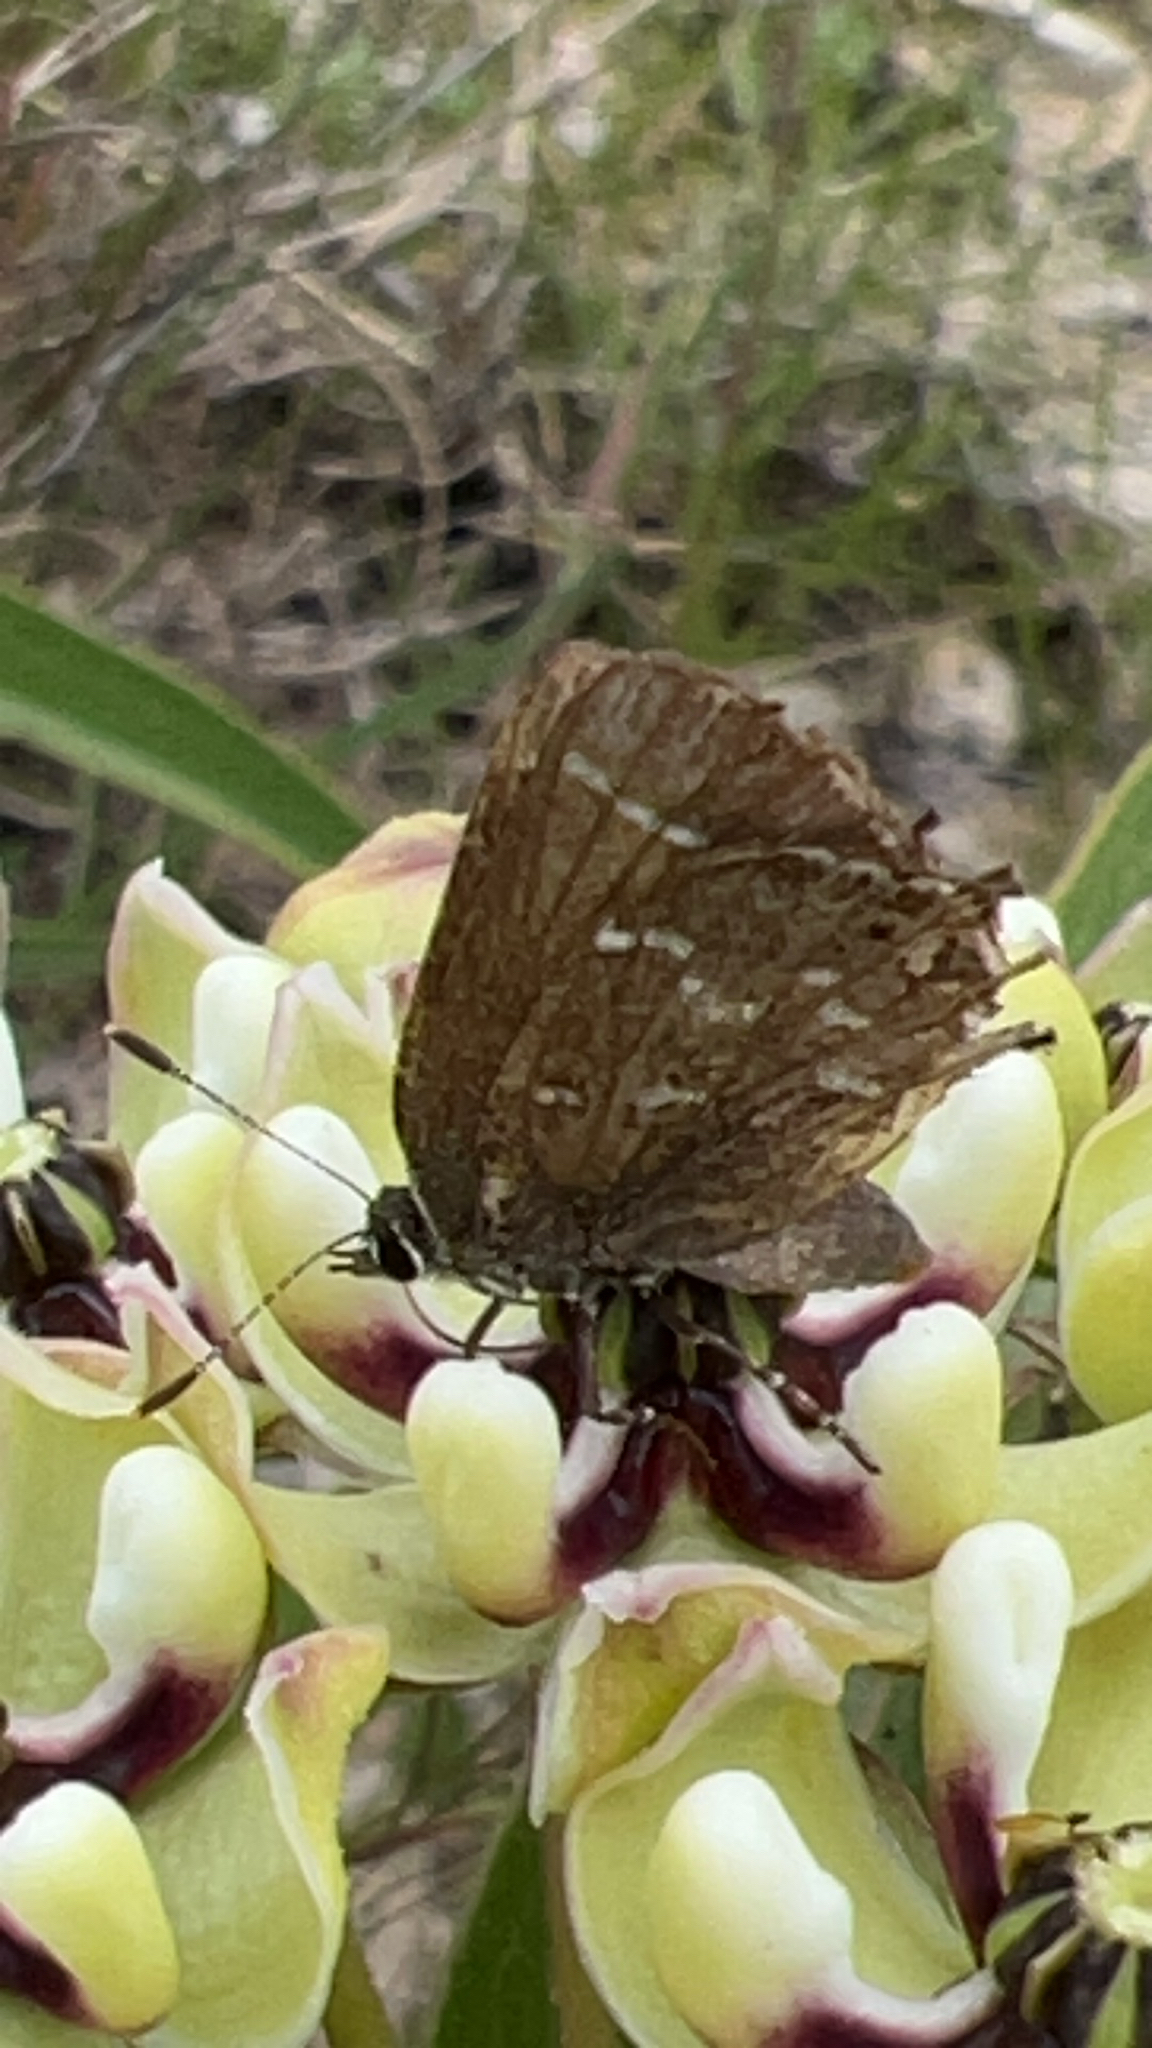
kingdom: Animalia
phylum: Arthropoda
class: Insecta
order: Lepidoptera
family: Lycaenidae
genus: Mitoura
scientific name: Mitoura gryneus
